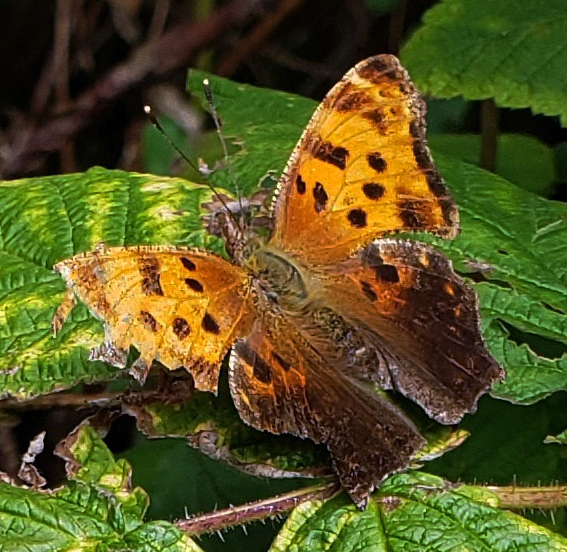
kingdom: Animalia
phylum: Arthropoda
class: Insecta
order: Lepidoptera
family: Nymphalidae
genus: Polygonia
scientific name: Polygonia comma
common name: Eastern comma
